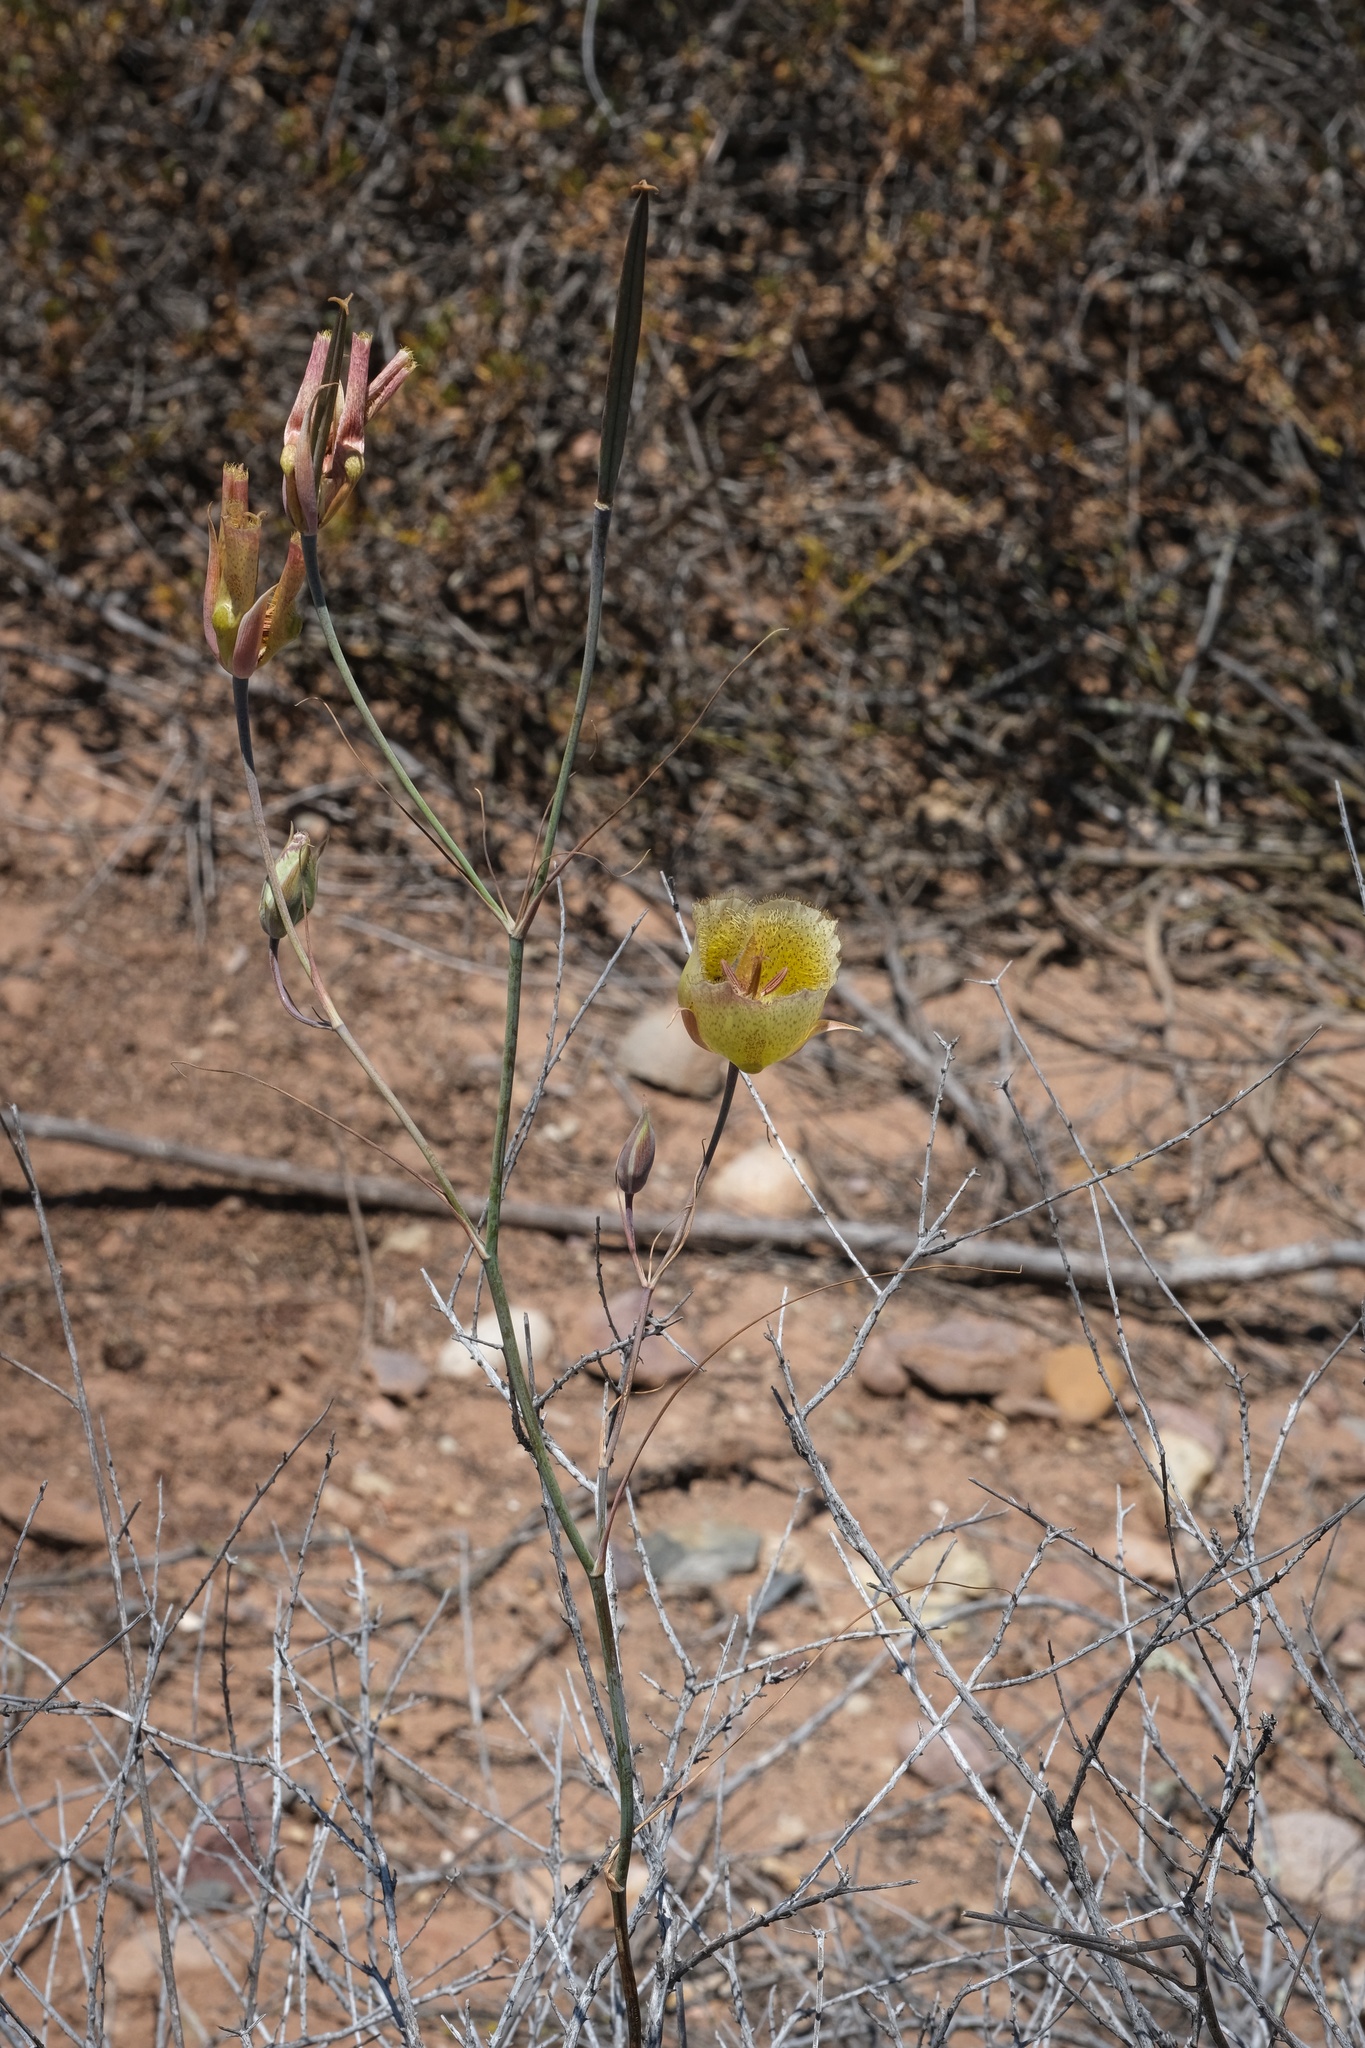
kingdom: Plantae
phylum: Tracheophyta
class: Liliopsida
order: Liliales
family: Liliaceae
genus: Calochortus
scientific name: Calochortus weedii
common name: Weed's mariposa-lily
